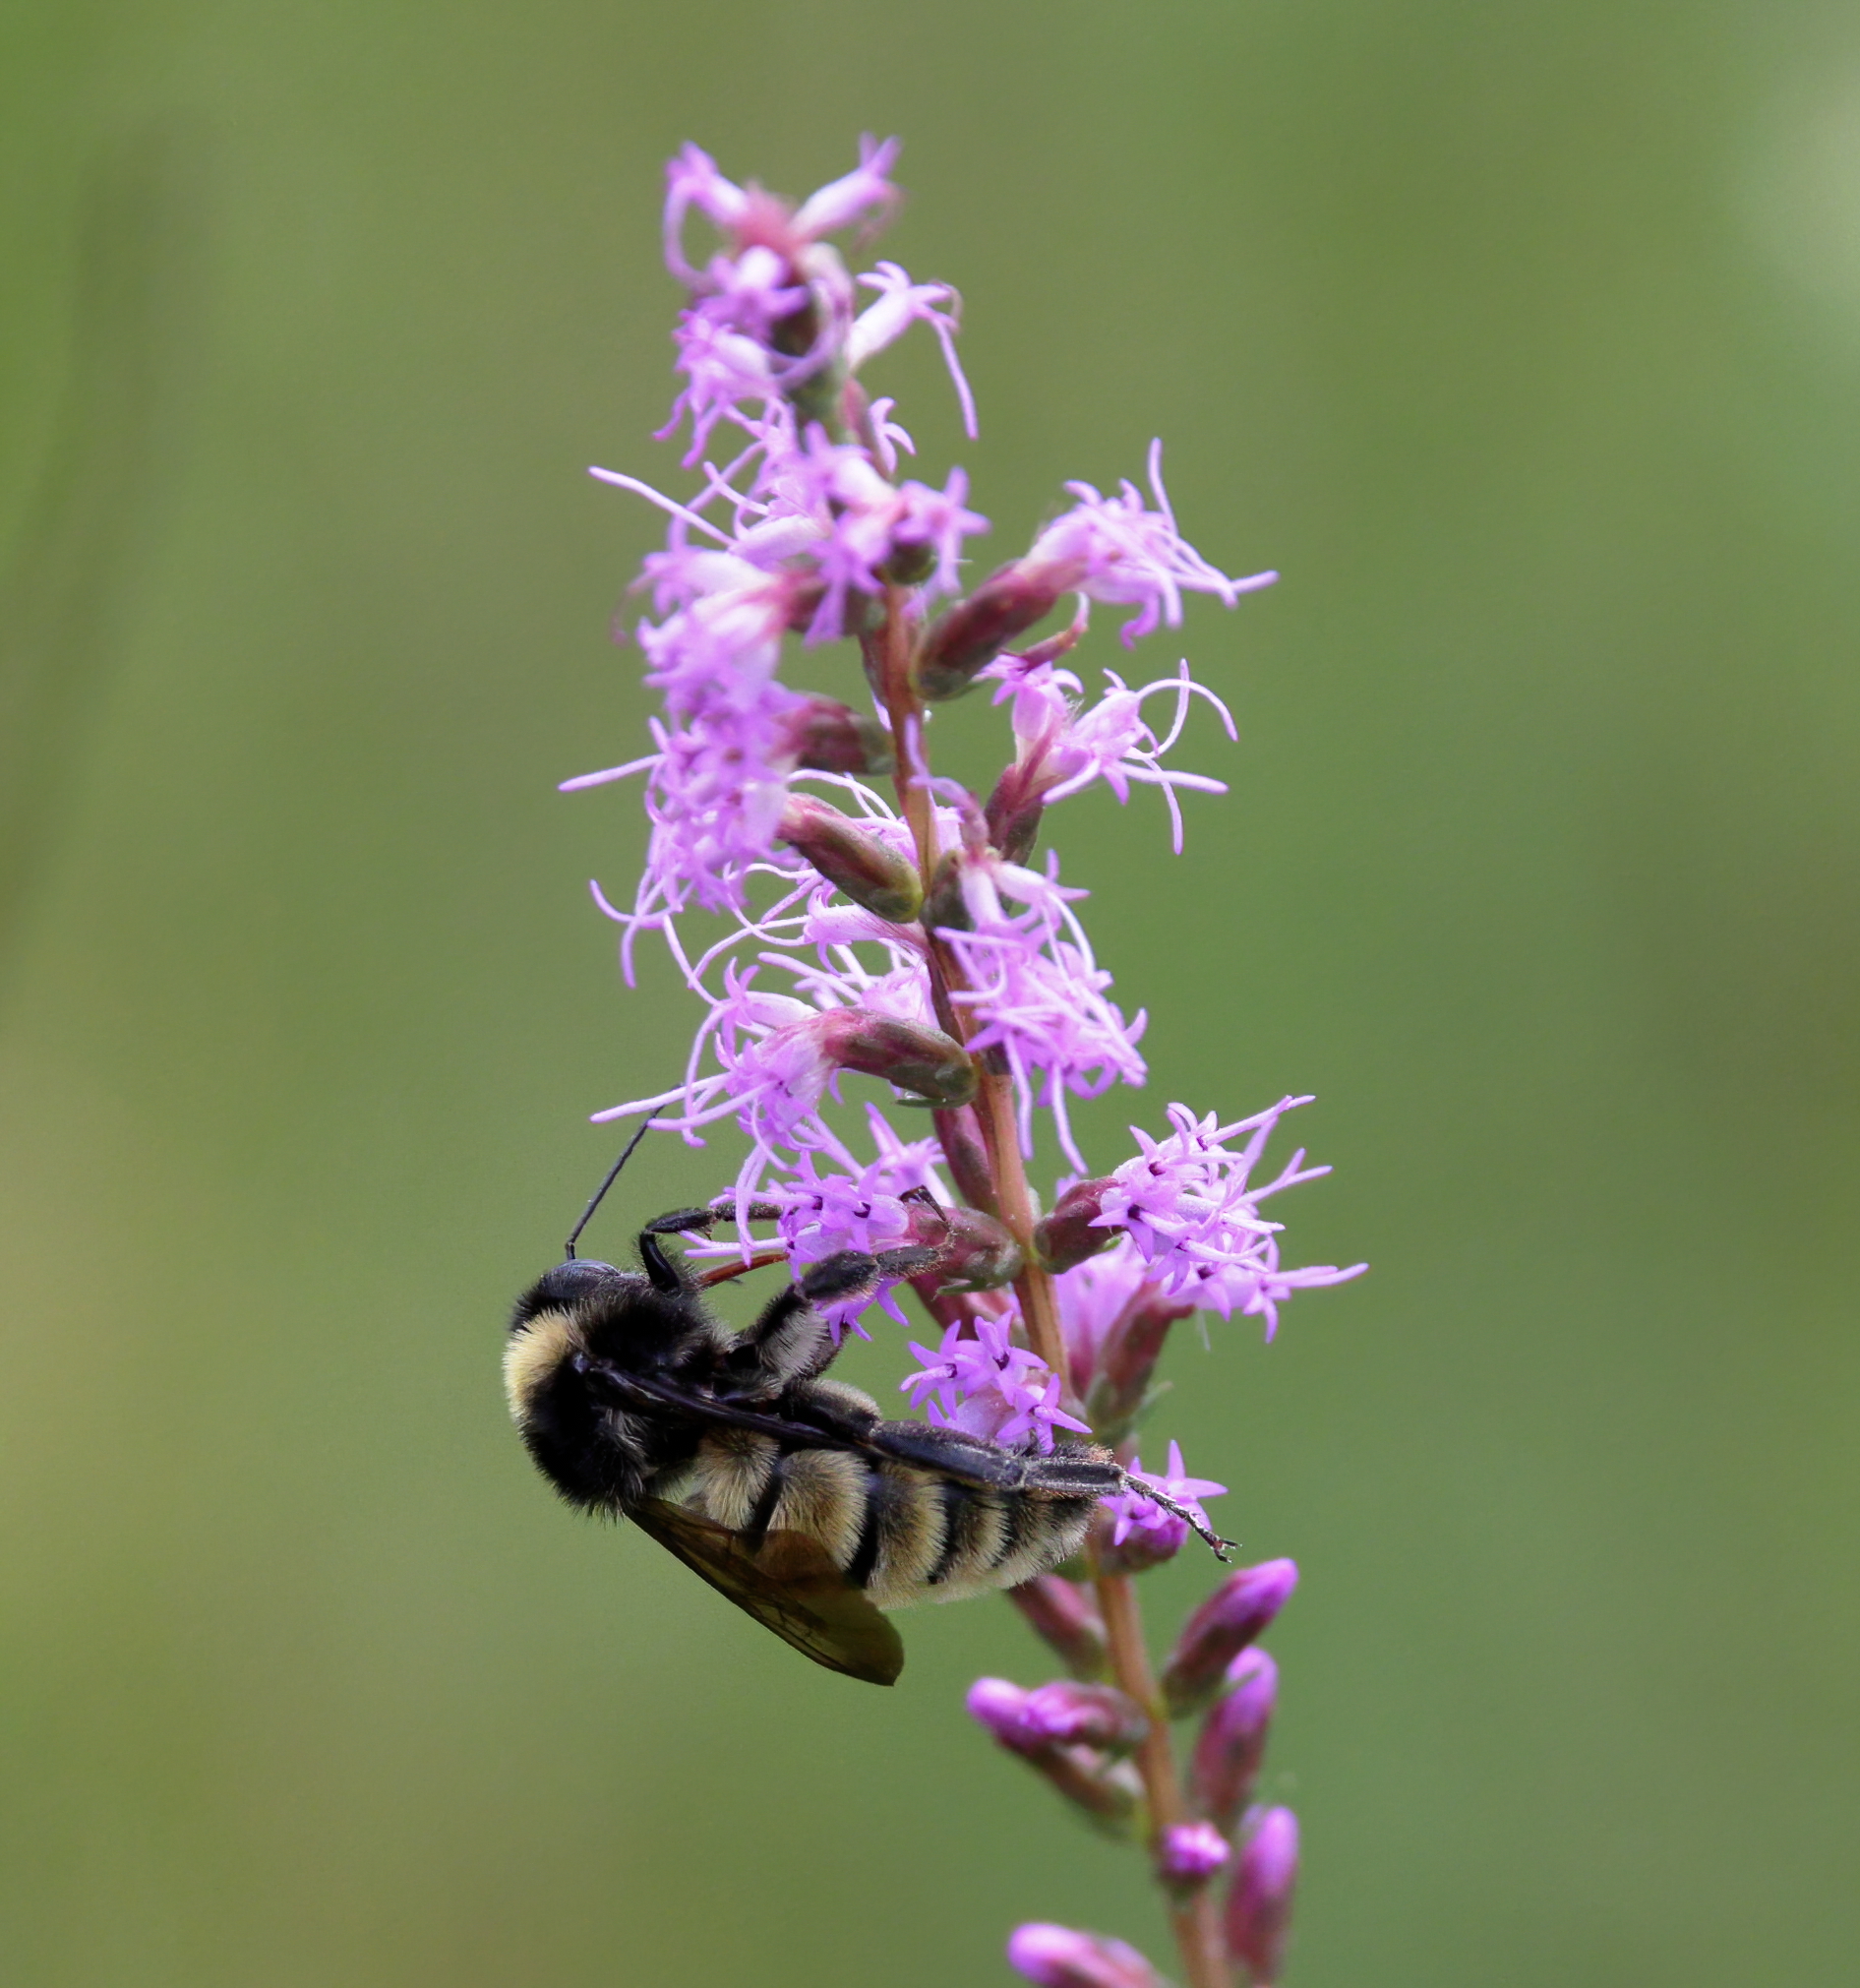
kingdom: Animalia
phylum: Arthropoda
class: Insecta
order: Hymenoptera
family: Apidae
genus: Bombus
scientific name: Bombus pensylvanicus
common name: Bumble bee
